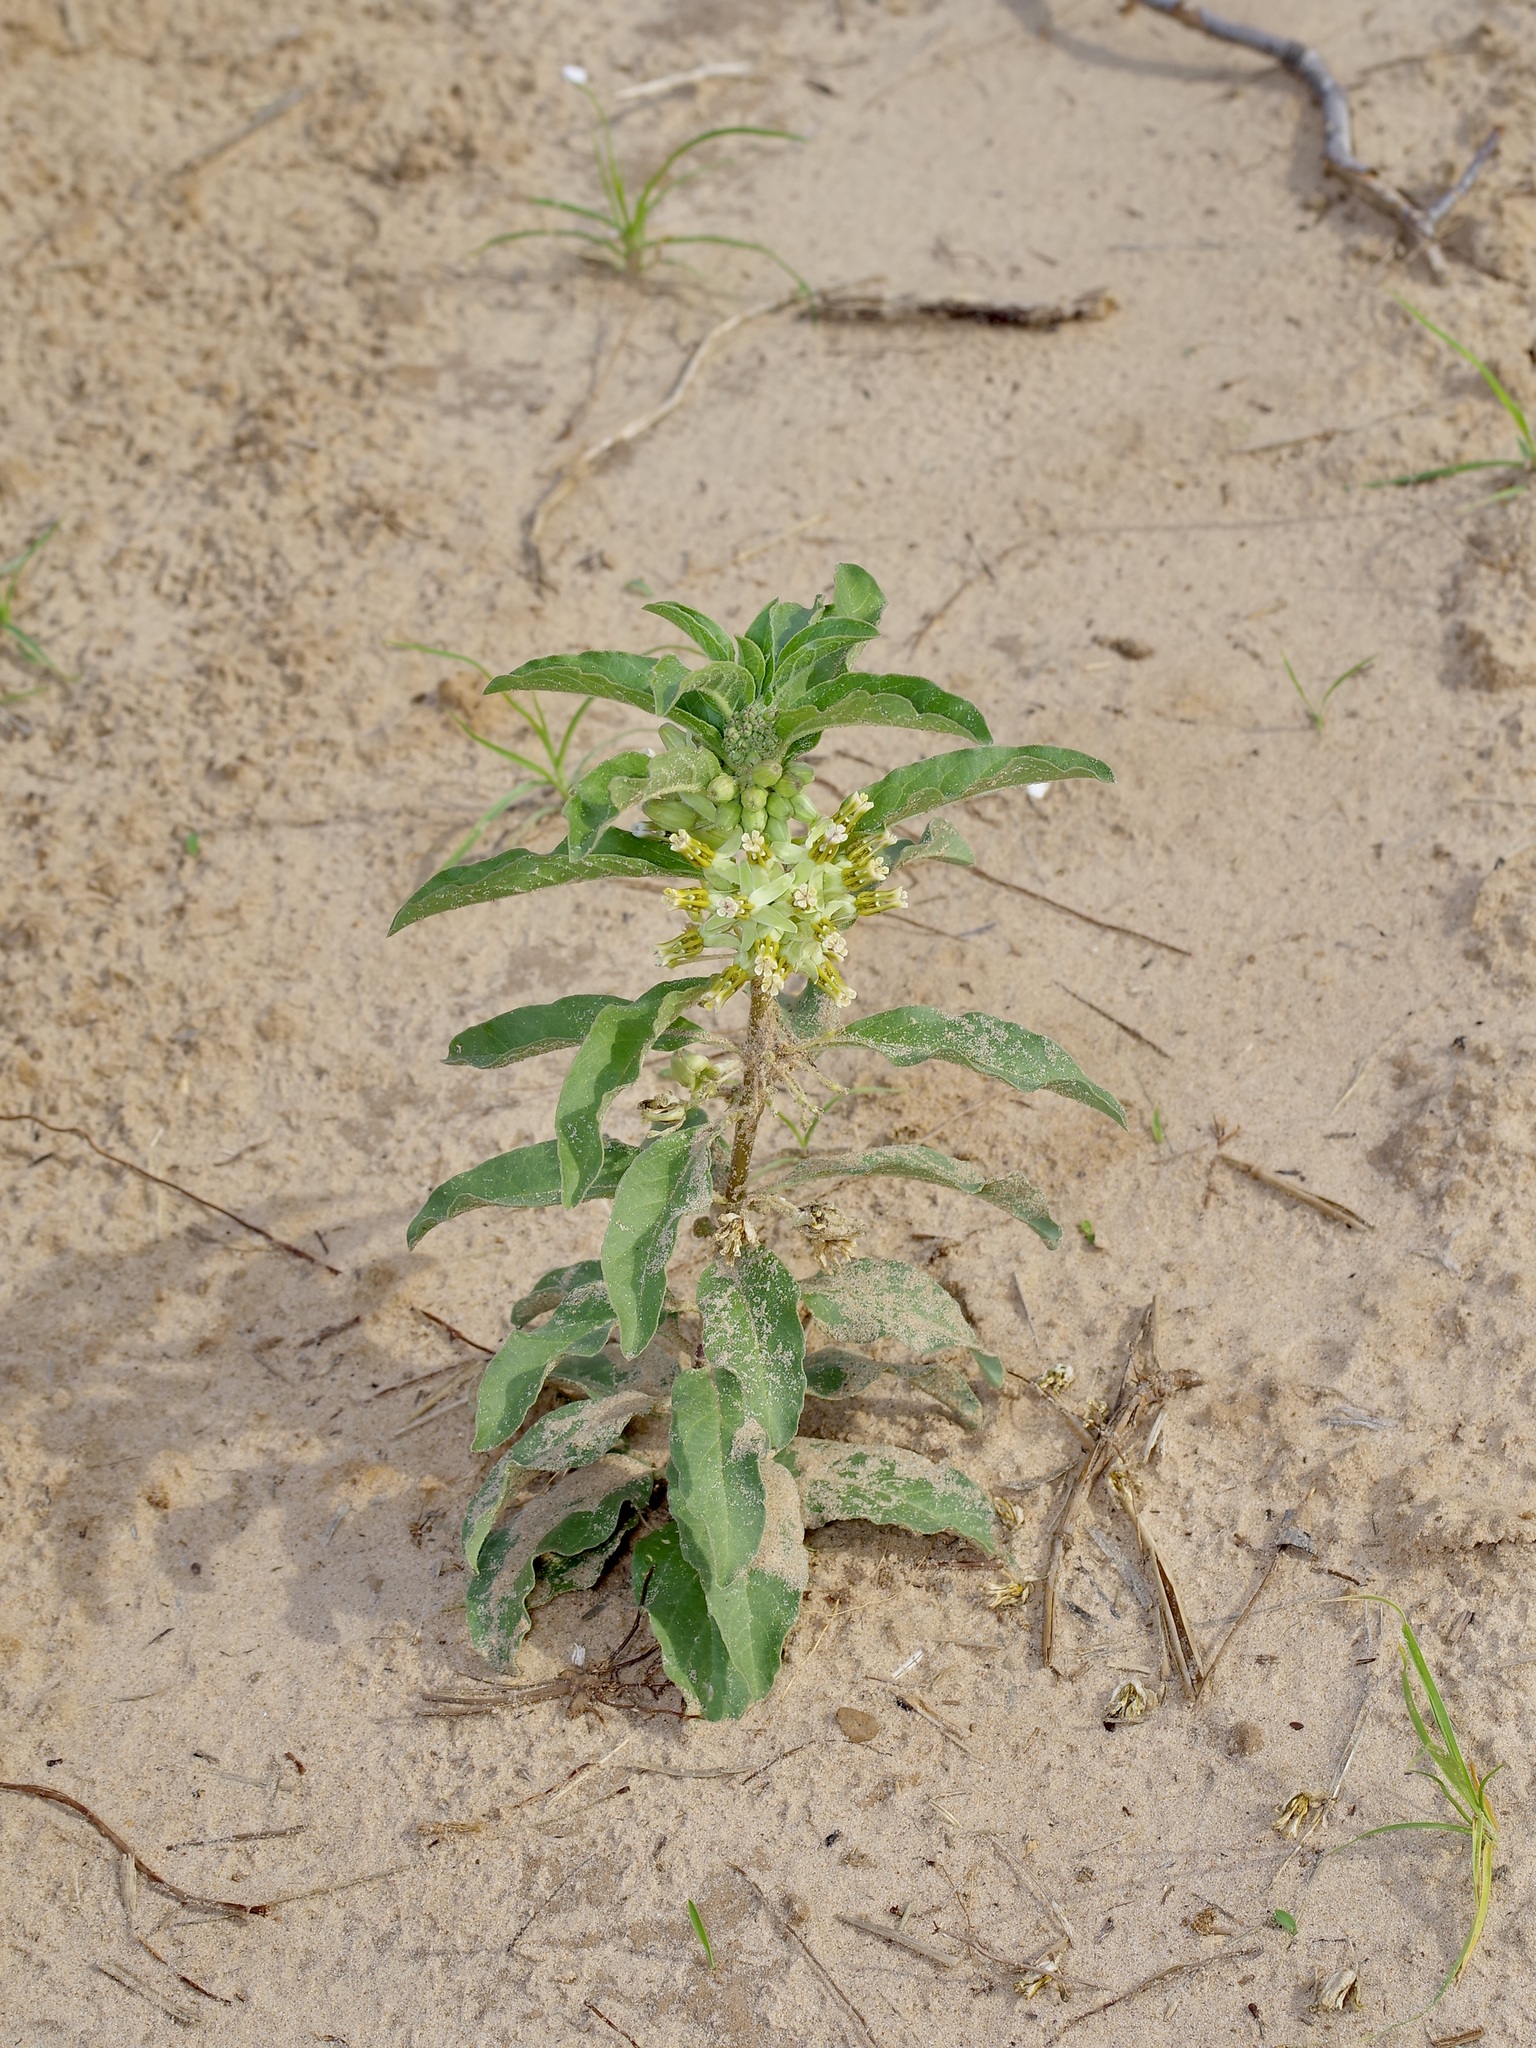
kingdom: Plantae
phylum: Tracheophyta
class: Magnoliopsida
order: Gentianales
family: Apocynaceae
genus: Asclepias
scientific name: Asclepias oenotheroides
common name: Zizotes milkweed
